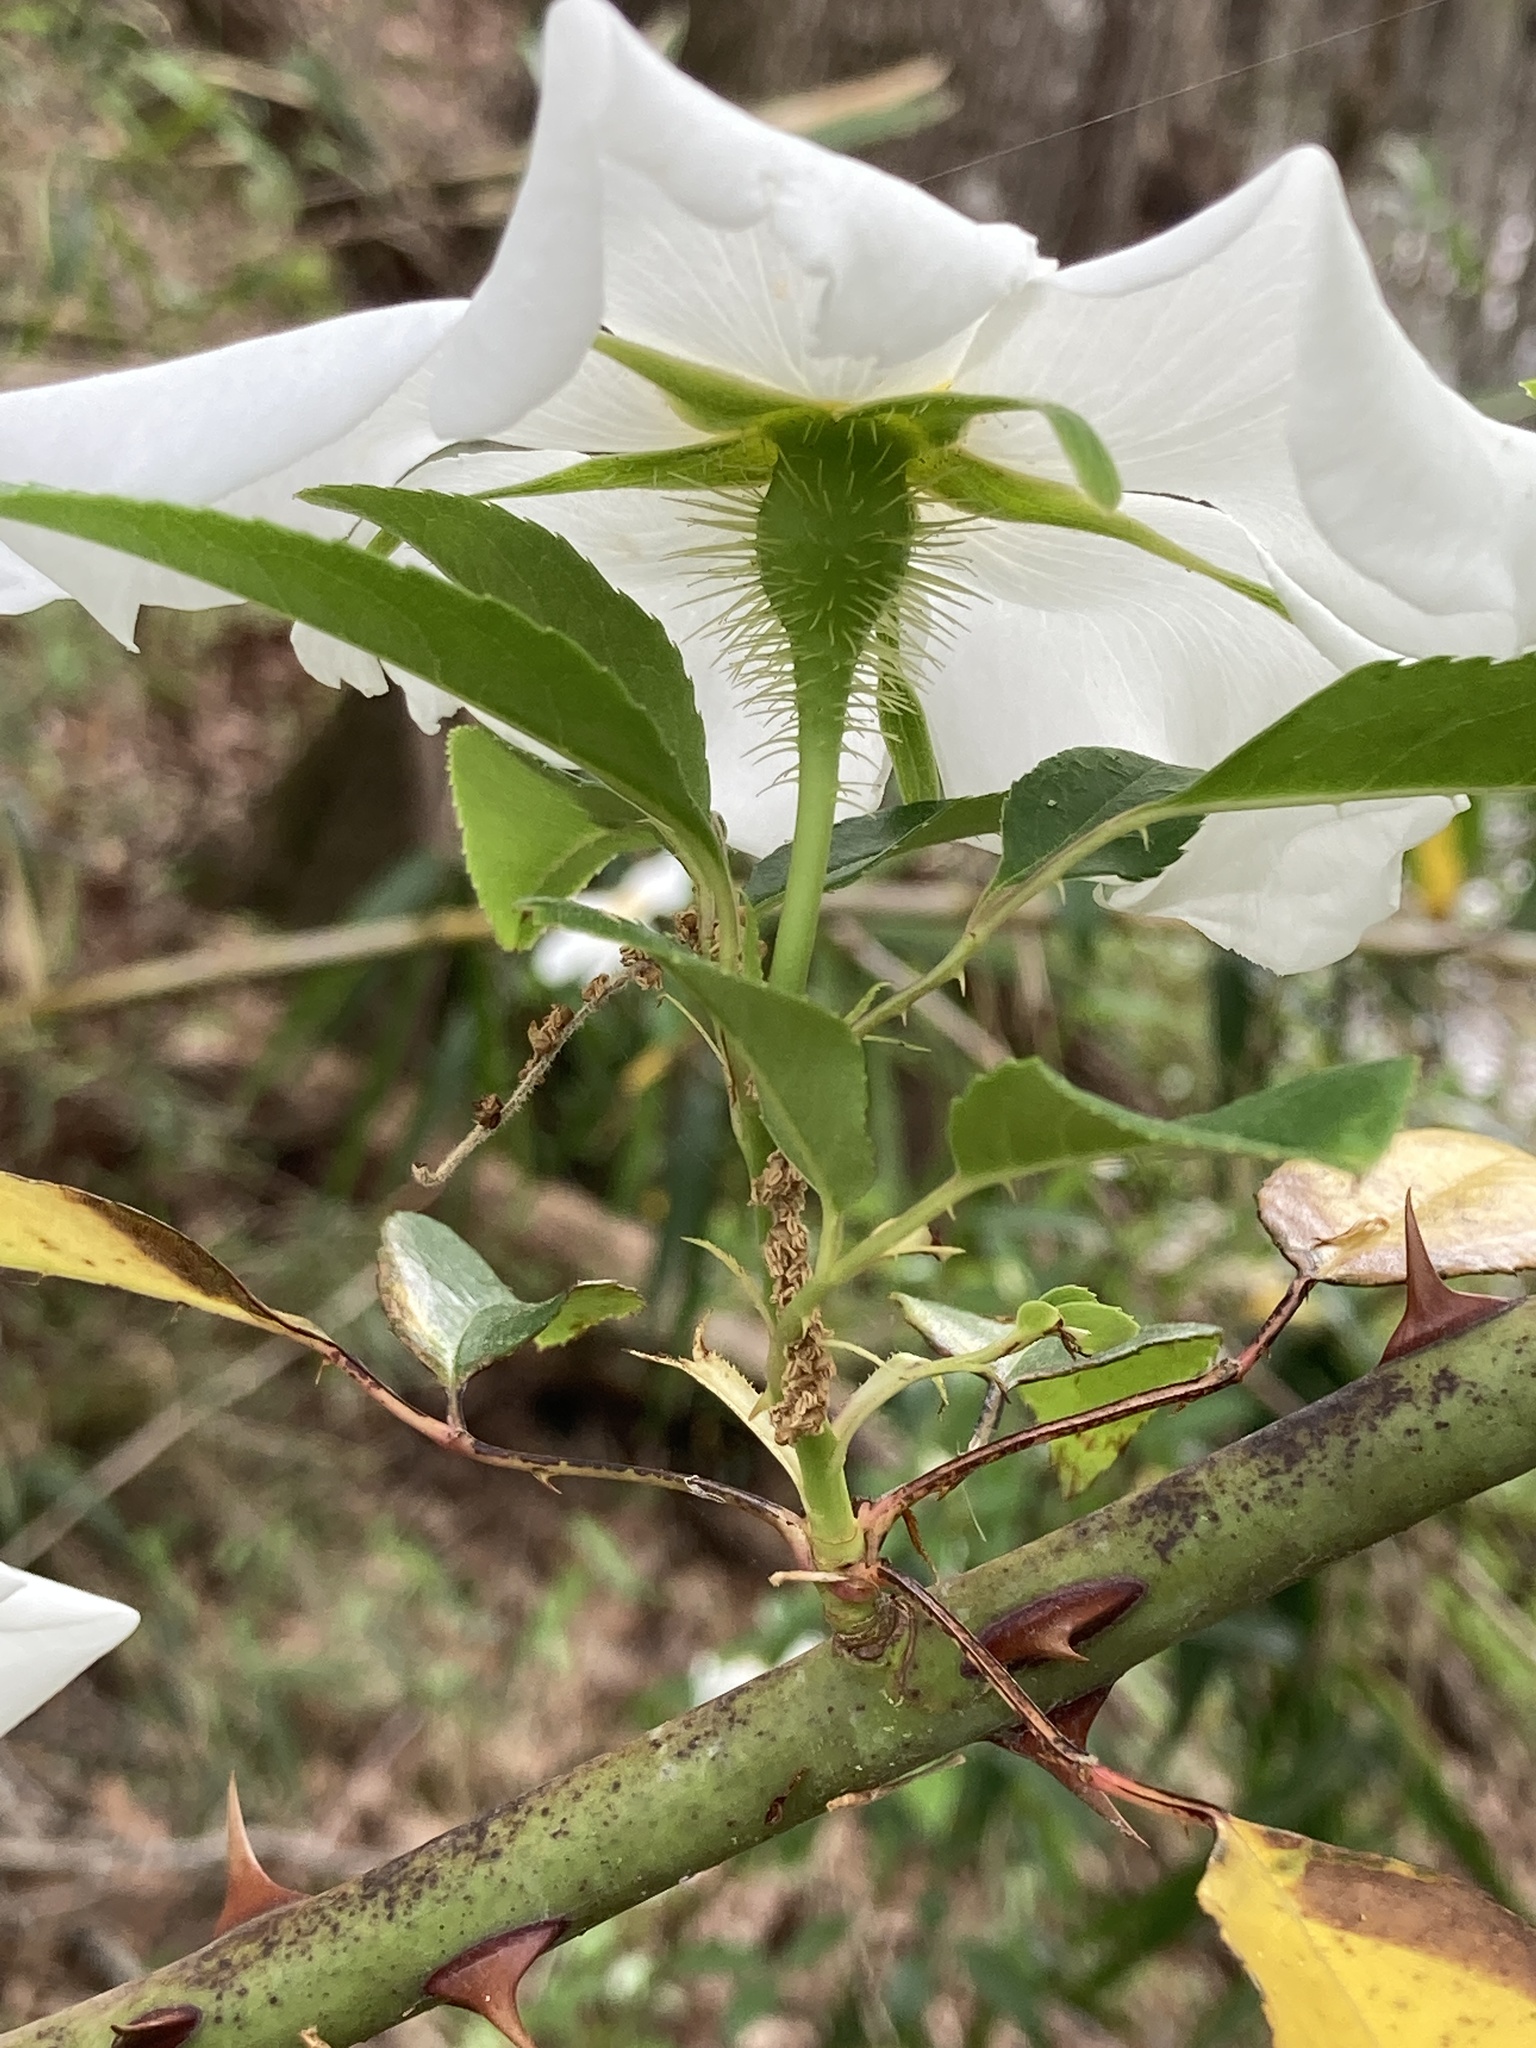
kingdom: Plantae
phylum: Tracheophyta
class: Magnoliopsida
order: Rosales
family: Rosaceae
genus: Rosa
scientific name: Rosa laevigata
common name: Cherokee rose
